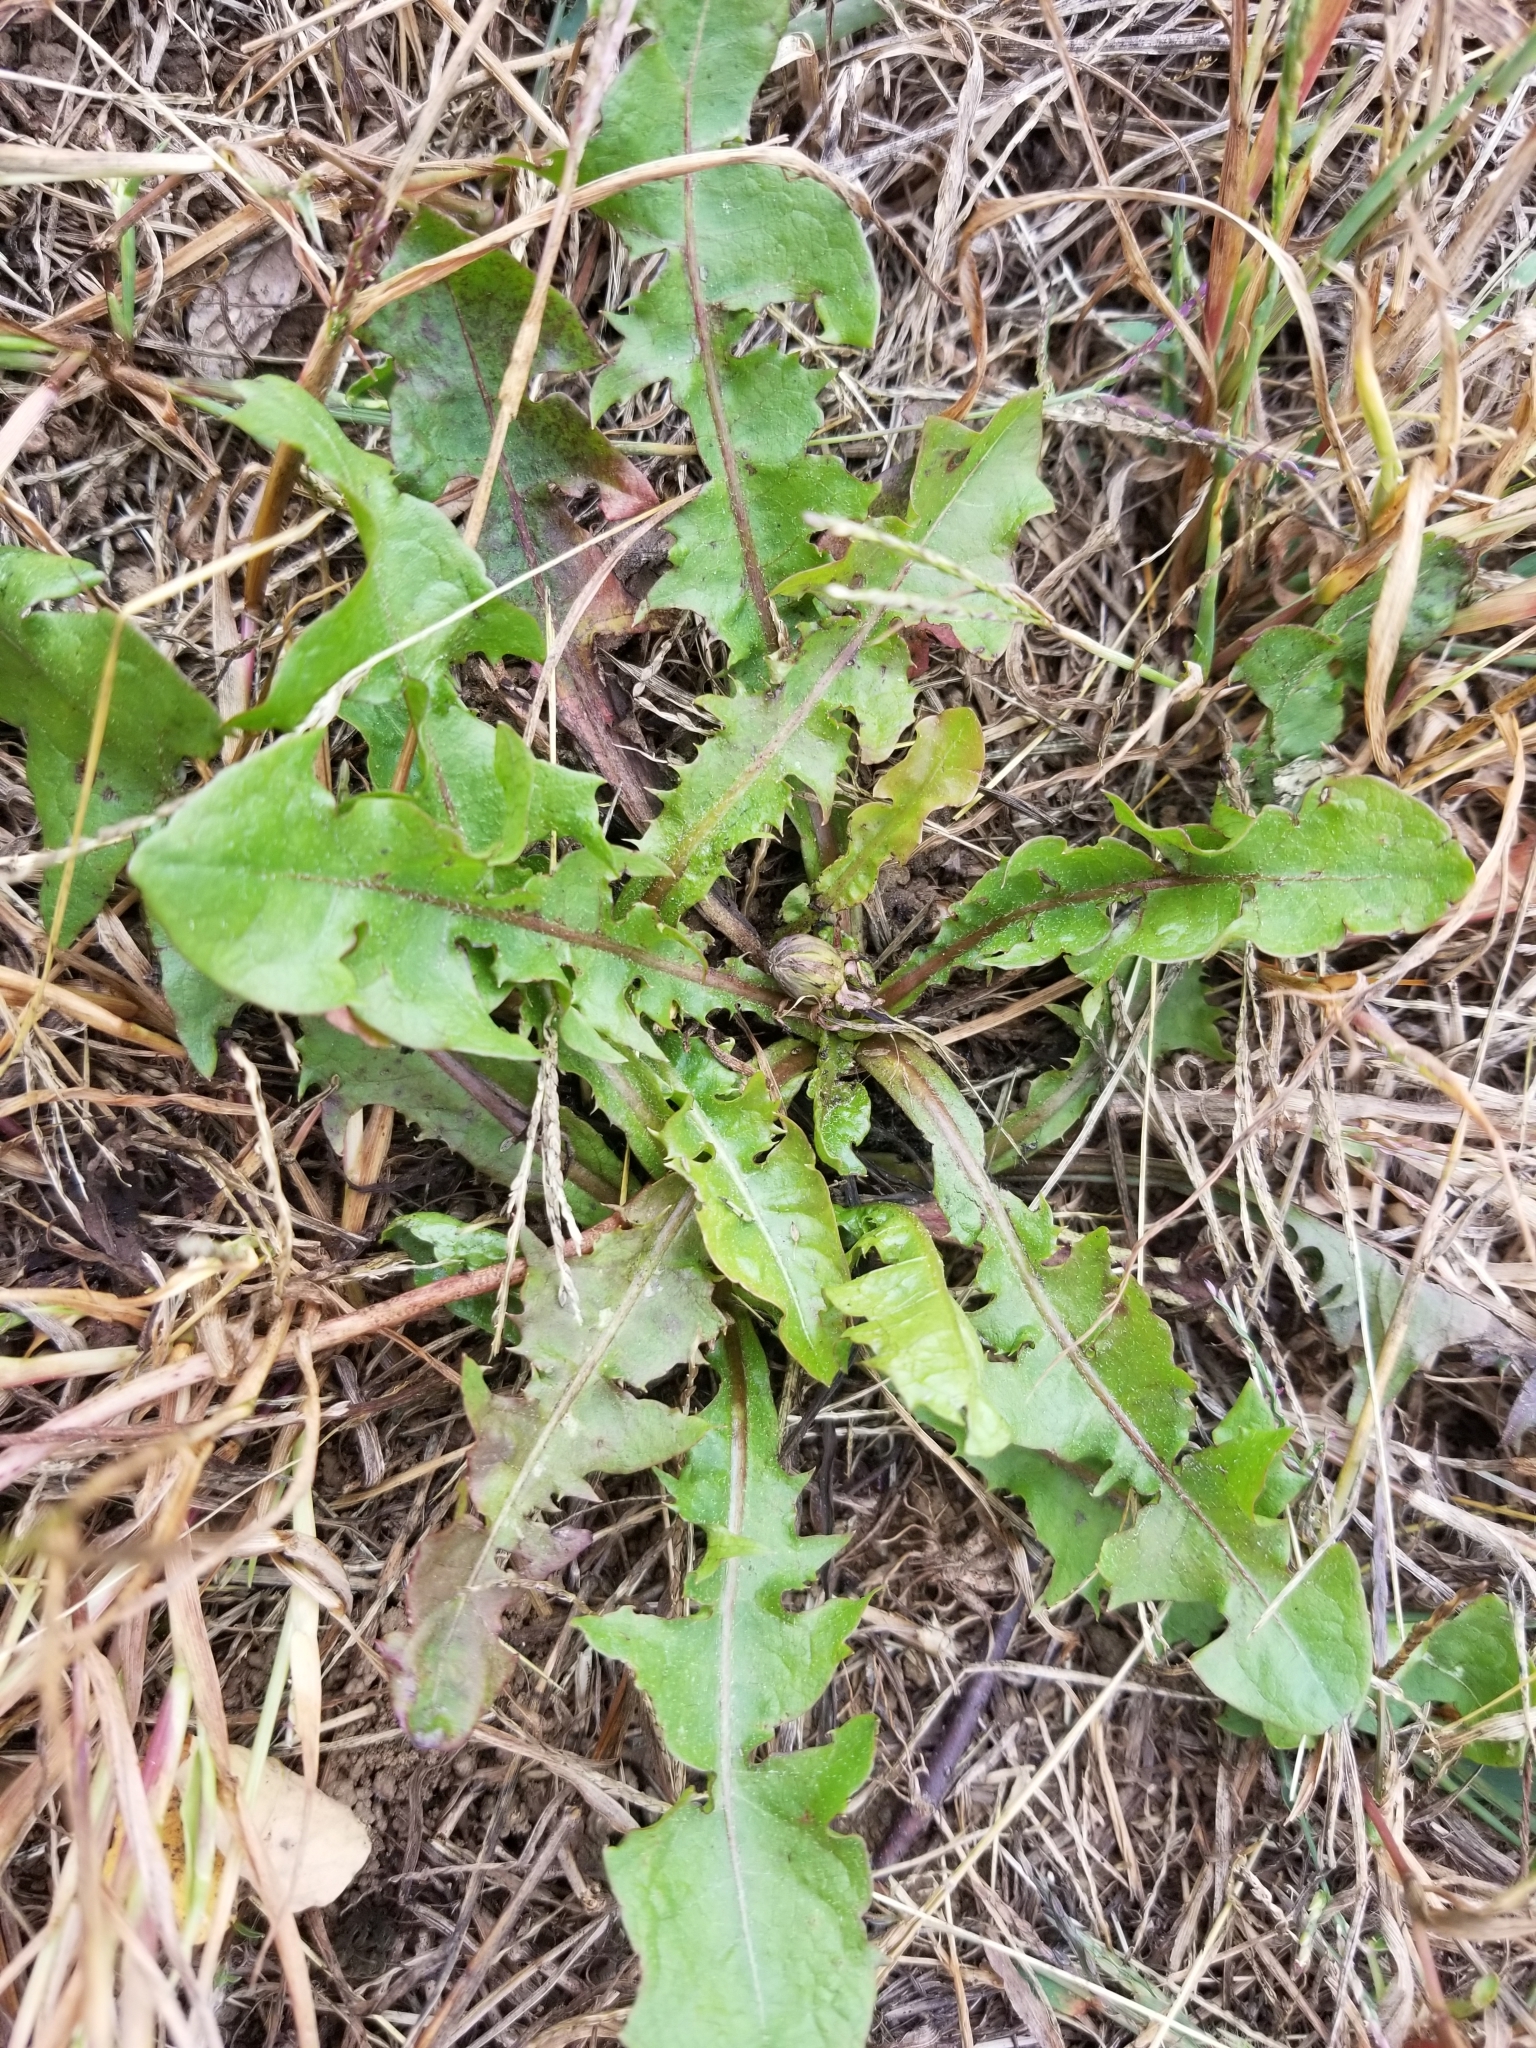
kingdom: Plantae
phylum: Tracheophyta
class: Magnoliopsida
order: Asterales
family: Asteraceae
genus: Taraxacum
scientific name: Taraxacum officinale
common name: Common dandelion
